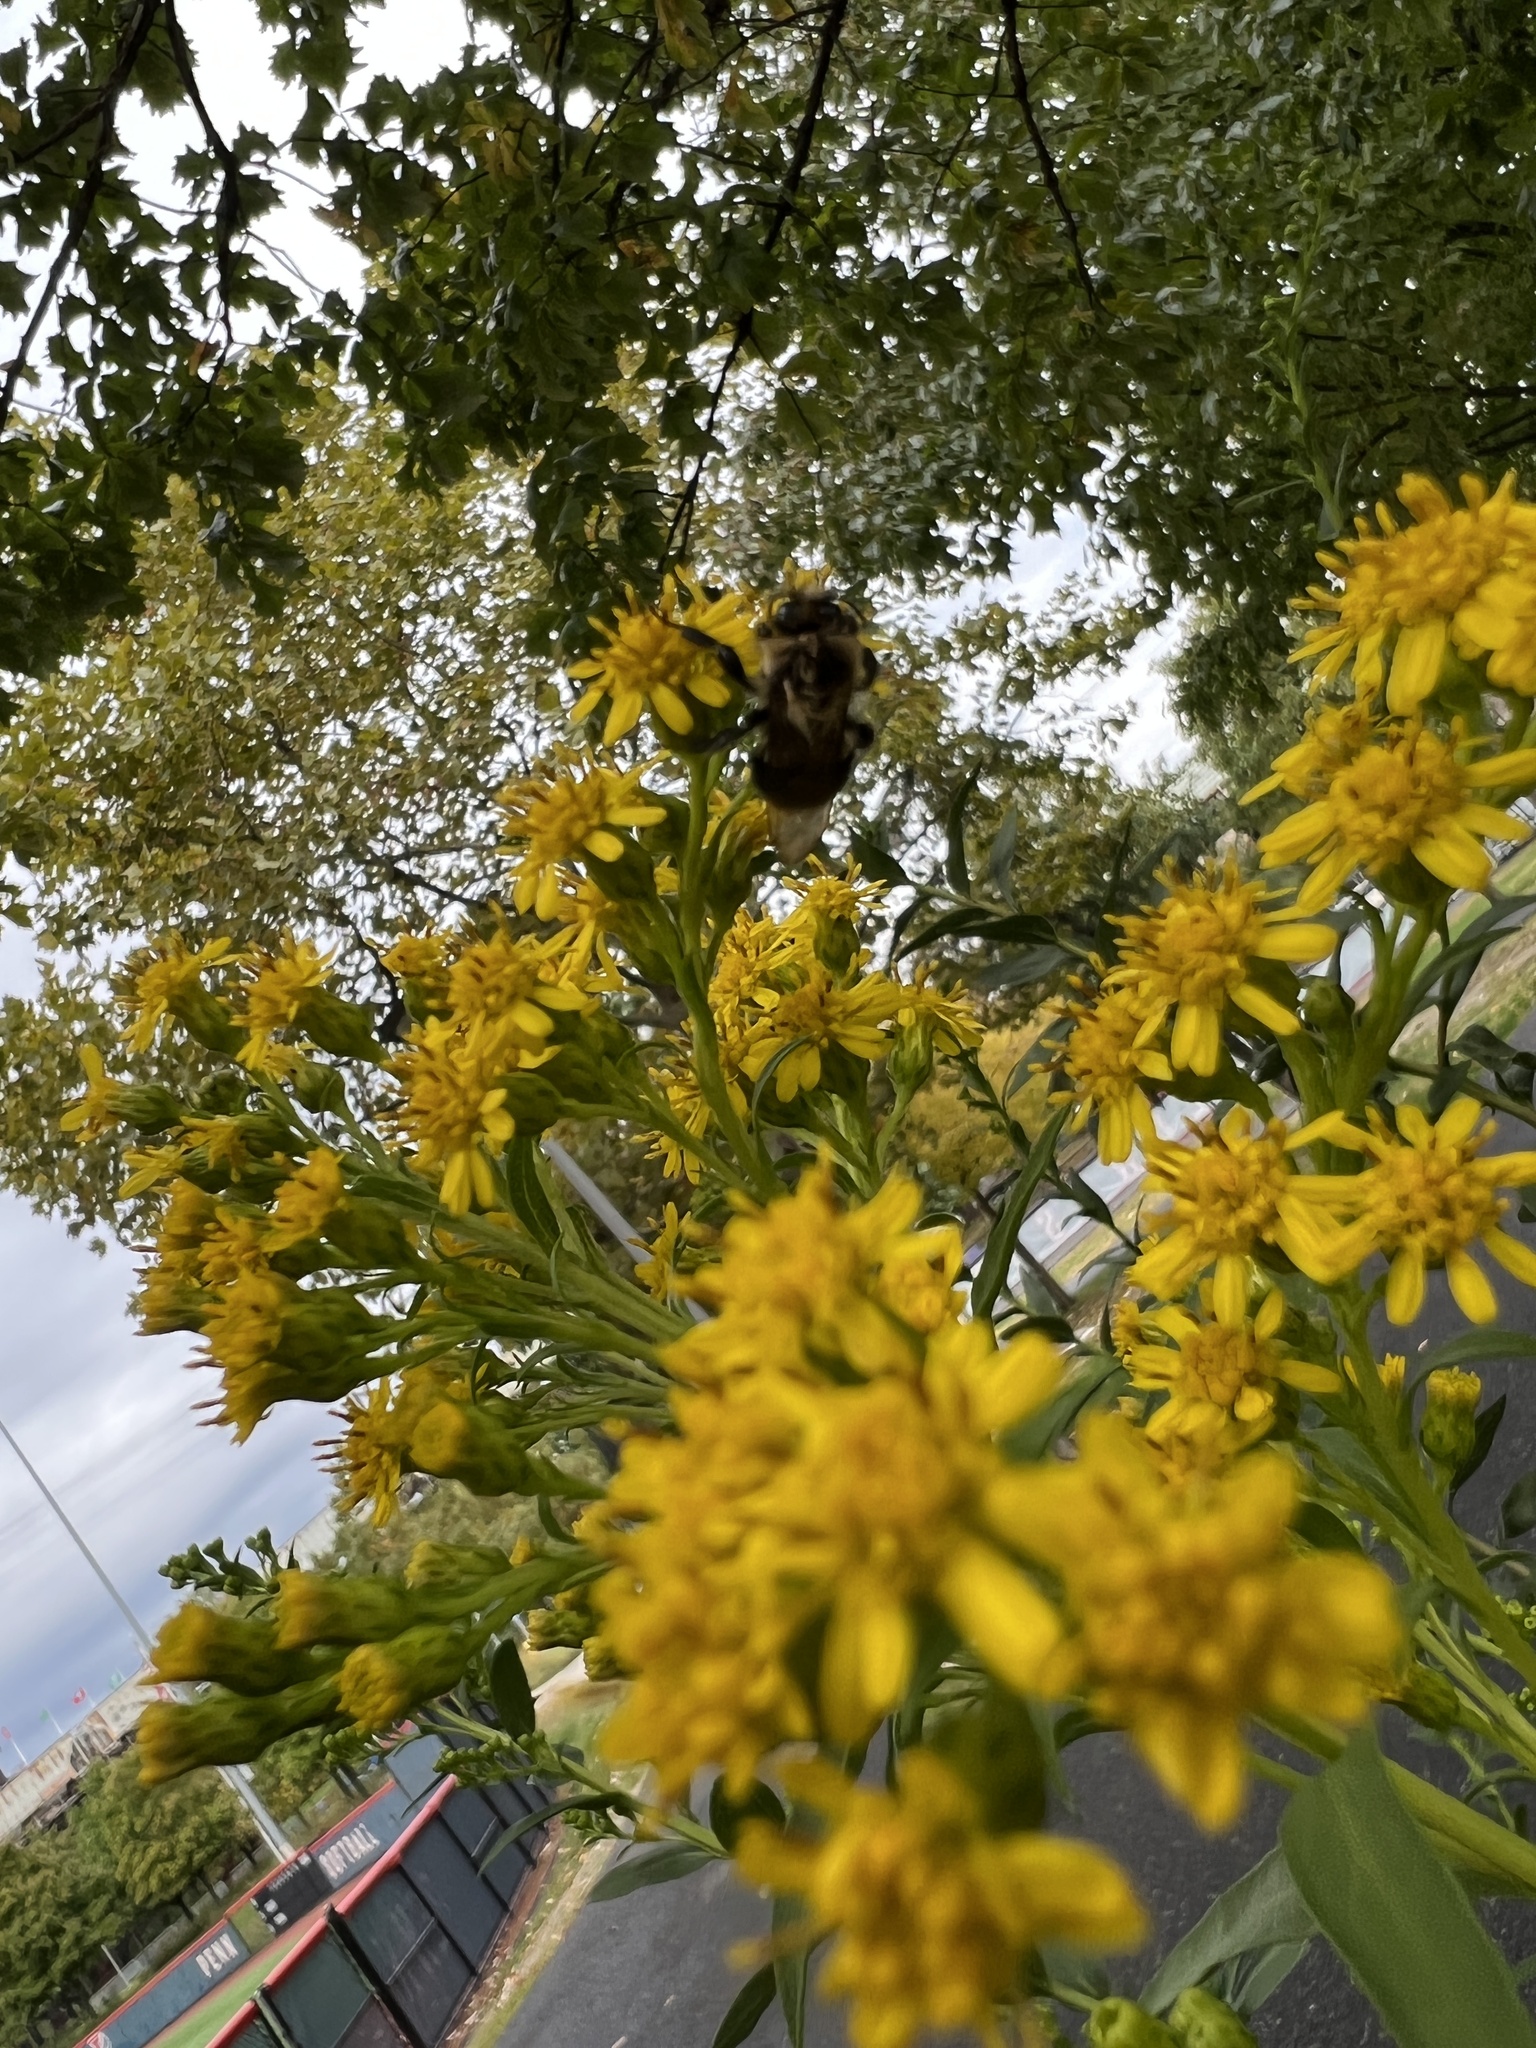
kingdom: Animalia
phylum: Arthropoda
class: Insecta
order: Hymenoptera
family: Apidae
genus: Bombus
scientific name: Bombus impatiens
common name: Common eastern bumble bee
